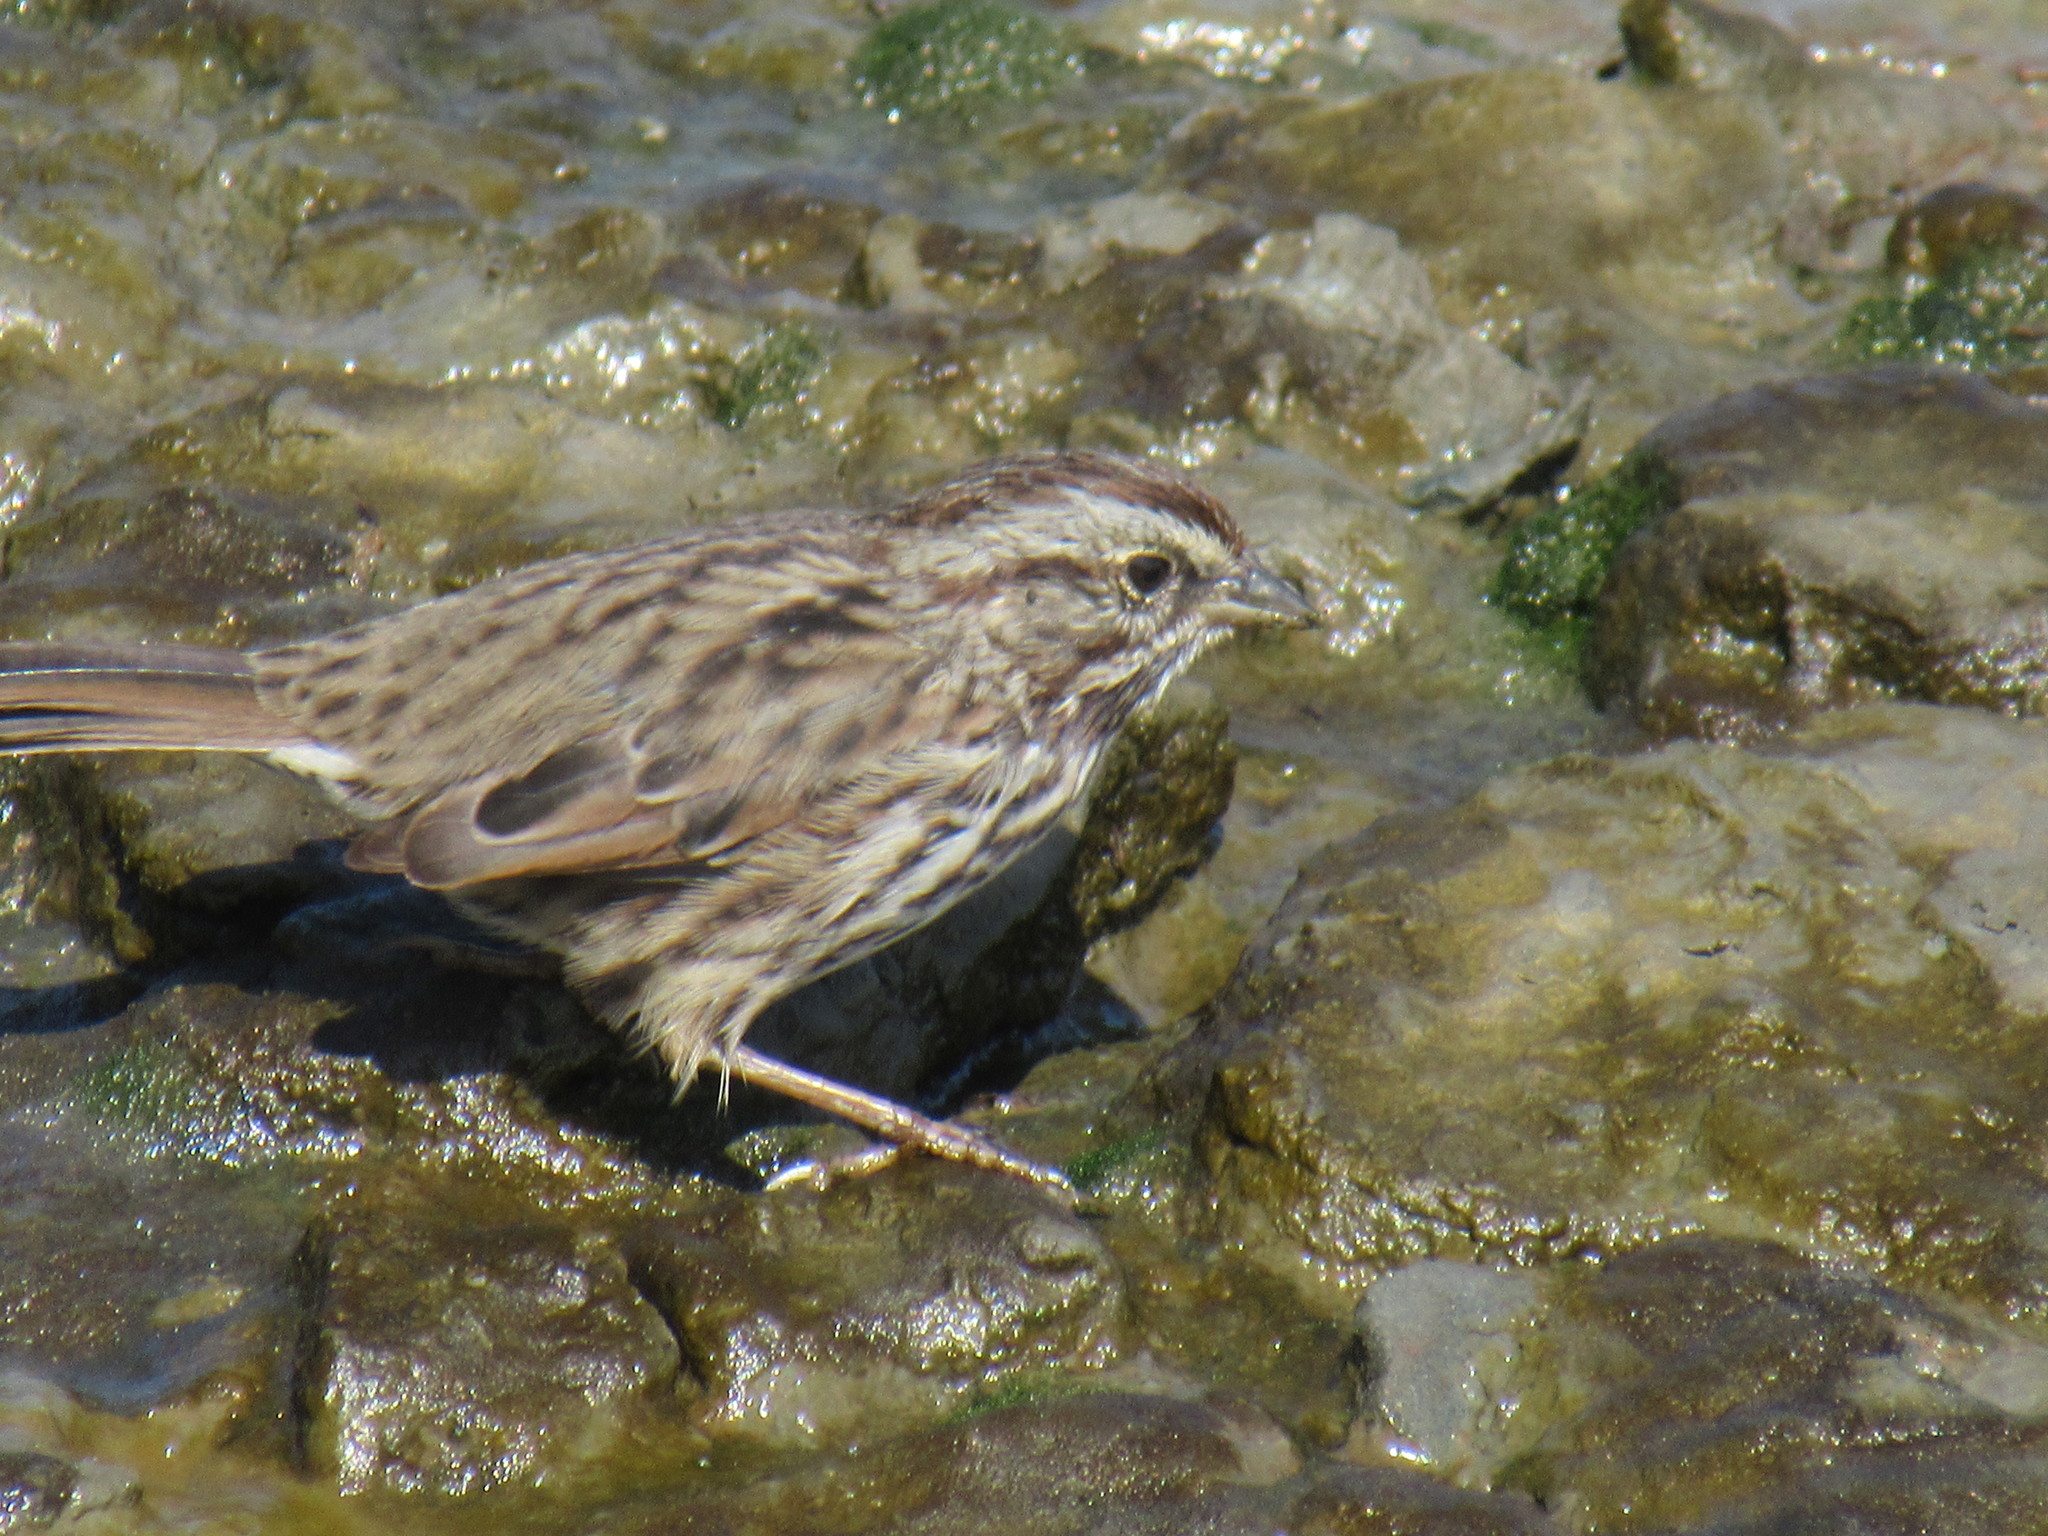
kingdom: Animalia
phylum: Chordata
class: Aves
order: Passeriformes
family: Passerellidae
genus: Melospiza
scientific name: Melospiza melodia
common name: Song sparrow
